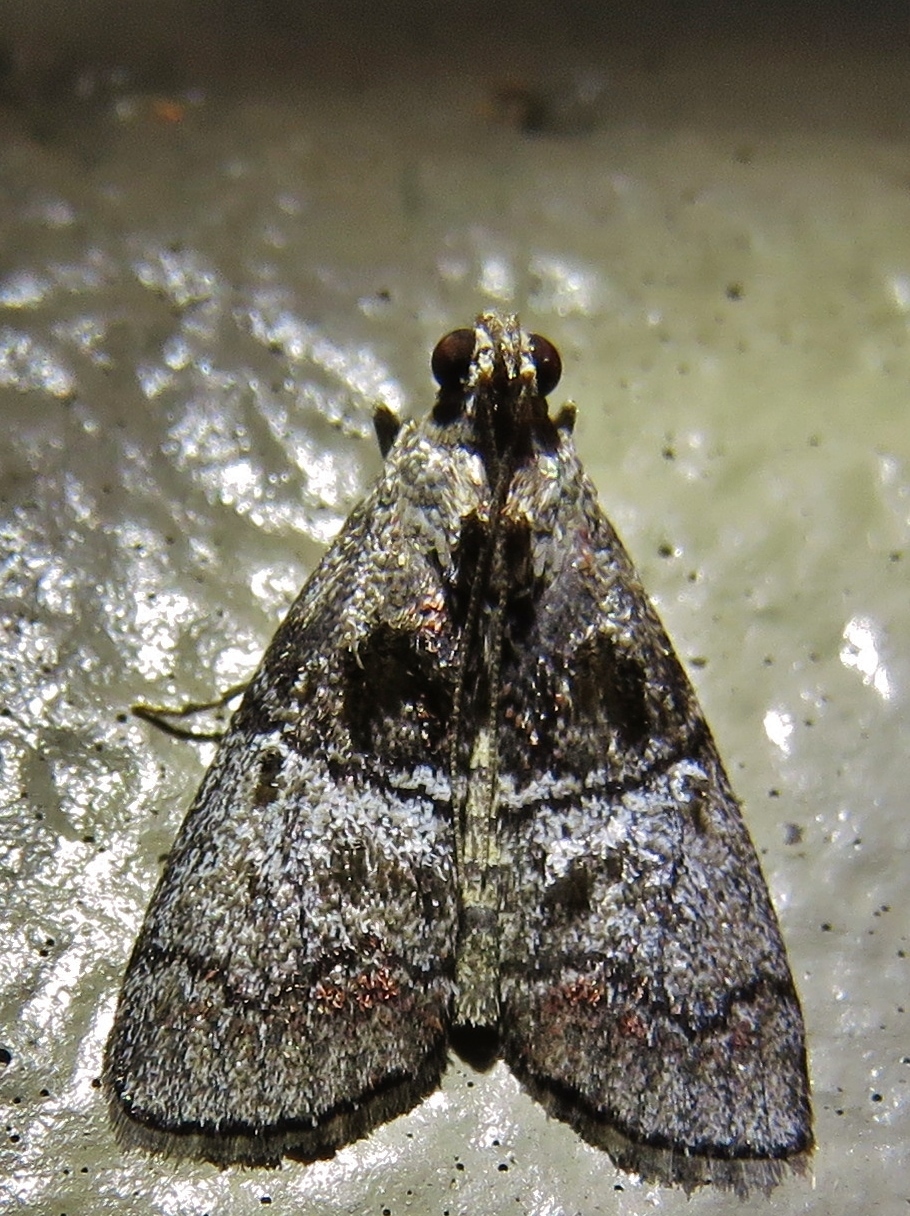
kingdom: Animalia
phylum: Arthropoda
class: Insecta
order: Lepidoptera
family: Pyralidae
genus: Pococera
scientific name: Pococera maritimalis
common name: Gray-banded pococera moth
